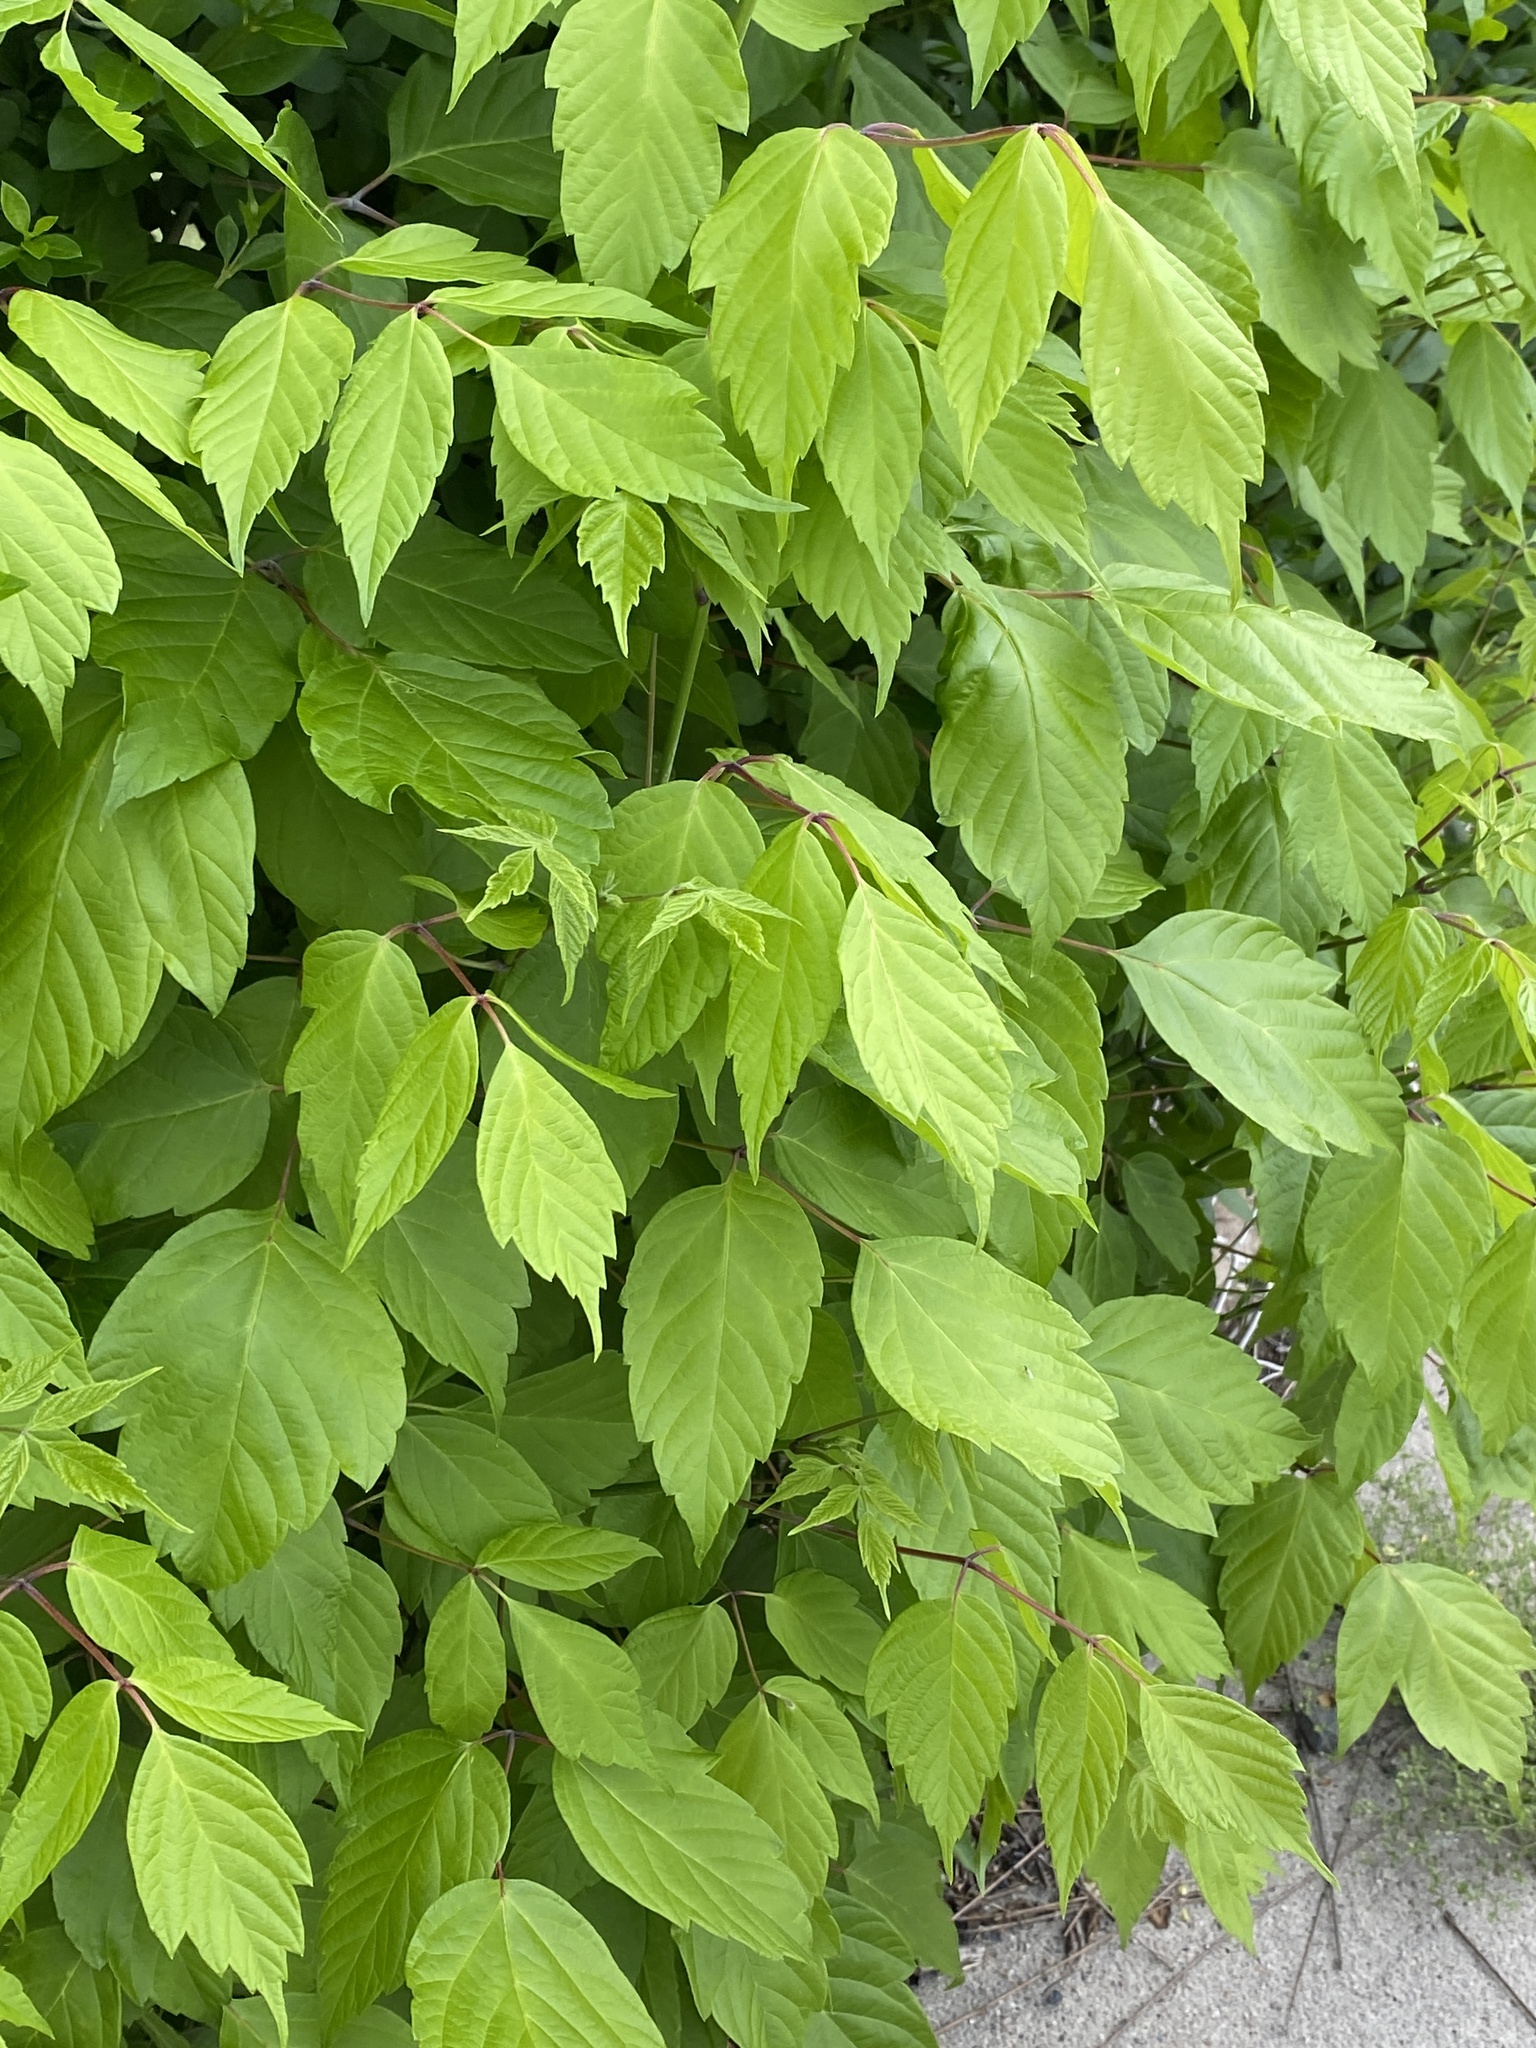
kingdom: Plantae
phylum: Tracheophyta
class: Magnoliopsida
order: Sapindales
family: Sapindaceae
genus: Acer
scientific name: Acer negundo
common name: Ashleaf maple
